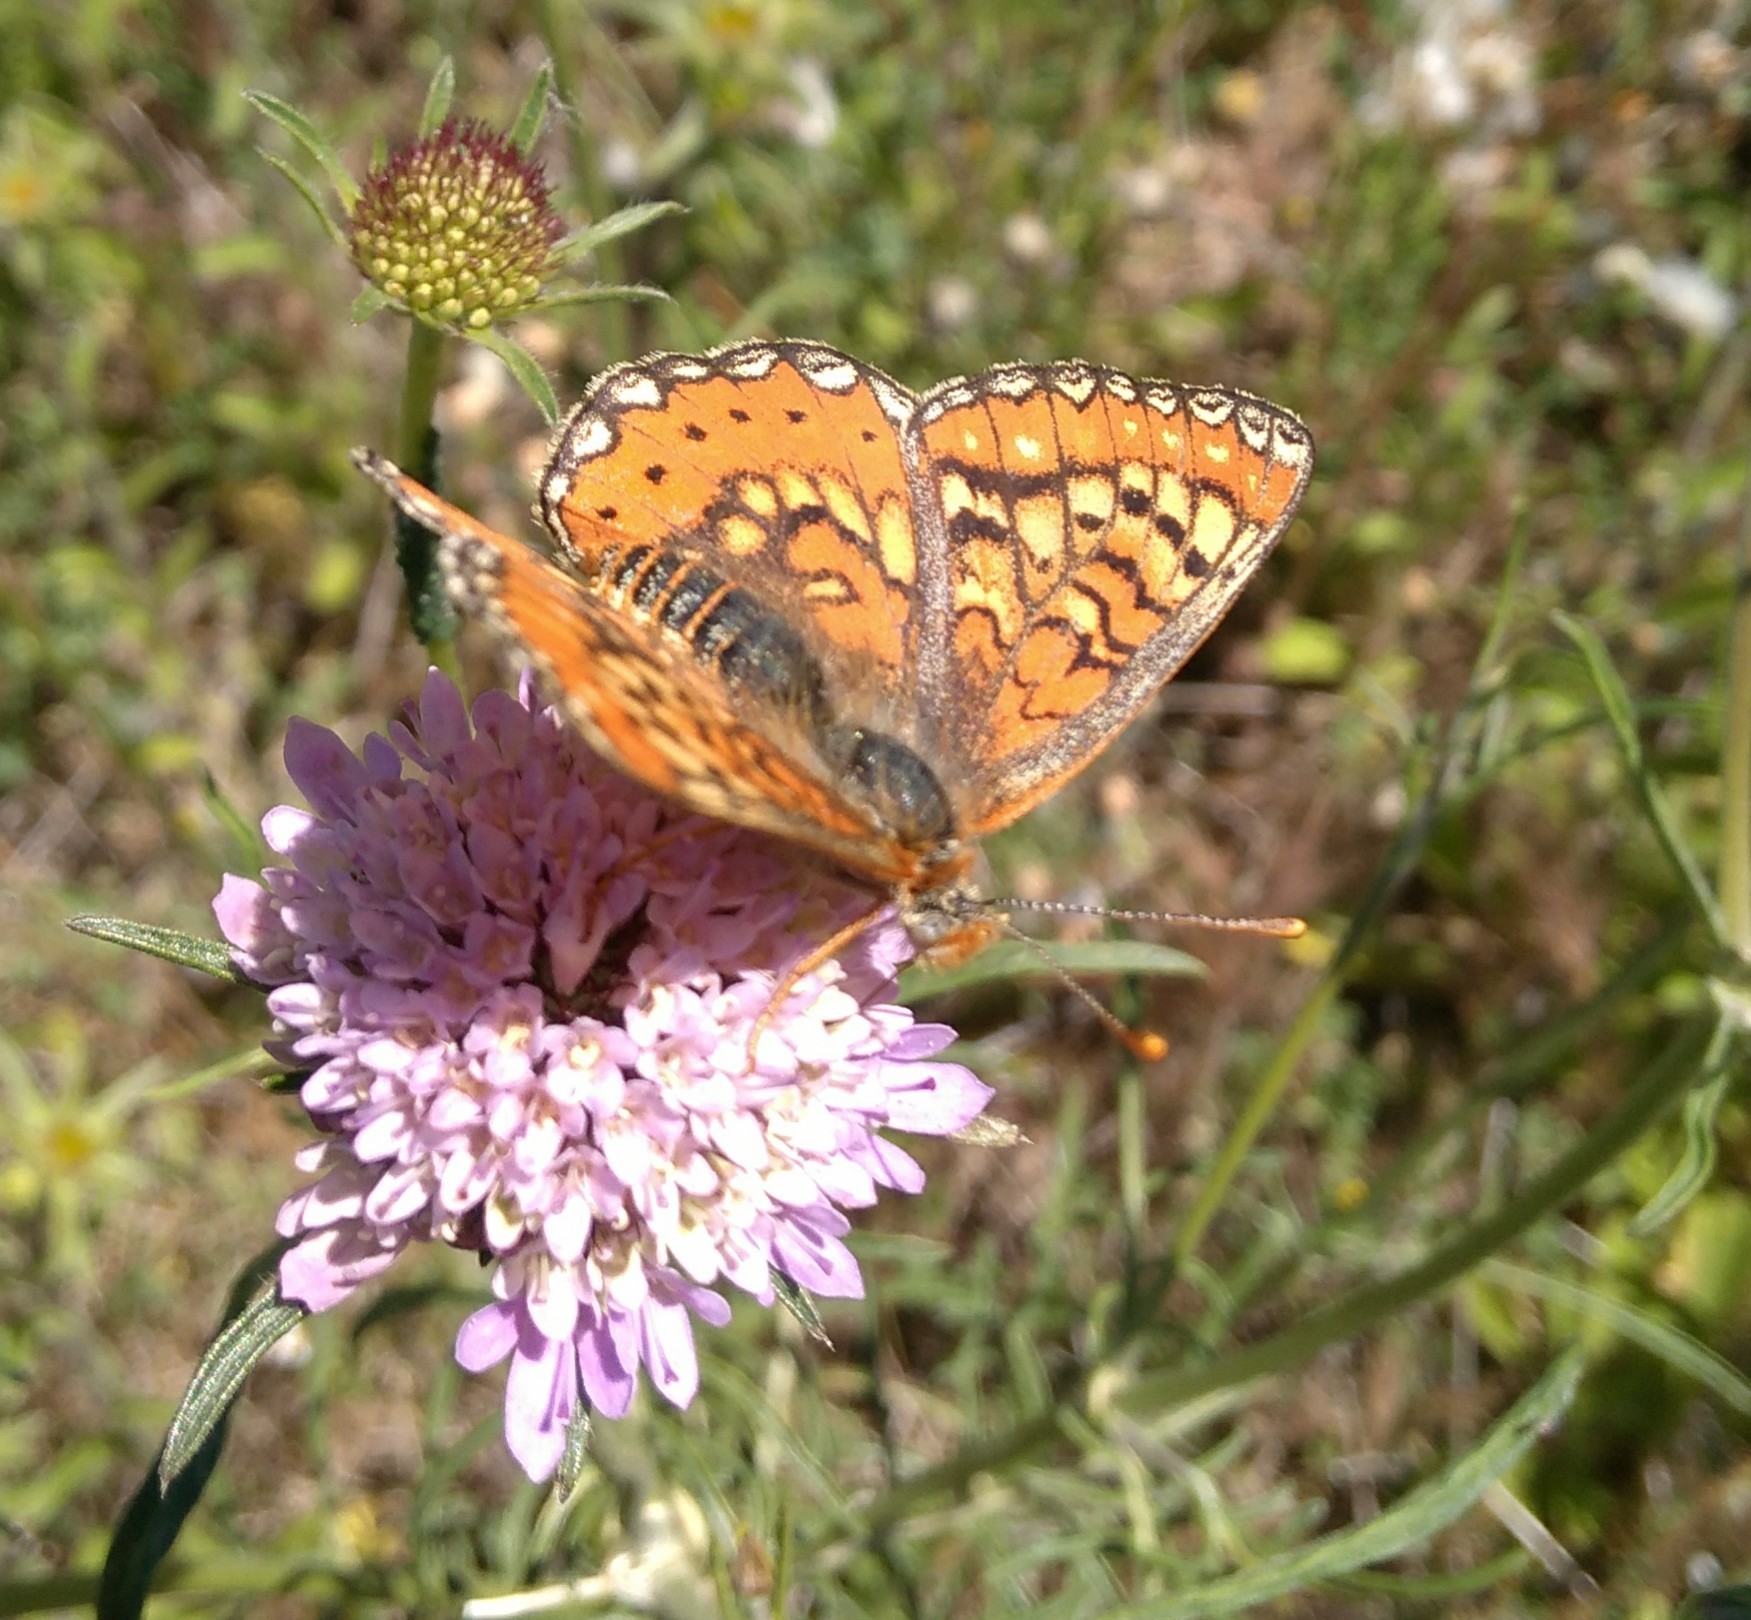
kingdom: Animalia
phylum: Arthropoda
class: Insecta
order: Lepidoptera
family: Nymphalidae
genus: Euphydryas
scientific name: Euphydryas desfontainii
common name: Spanish fritillary
